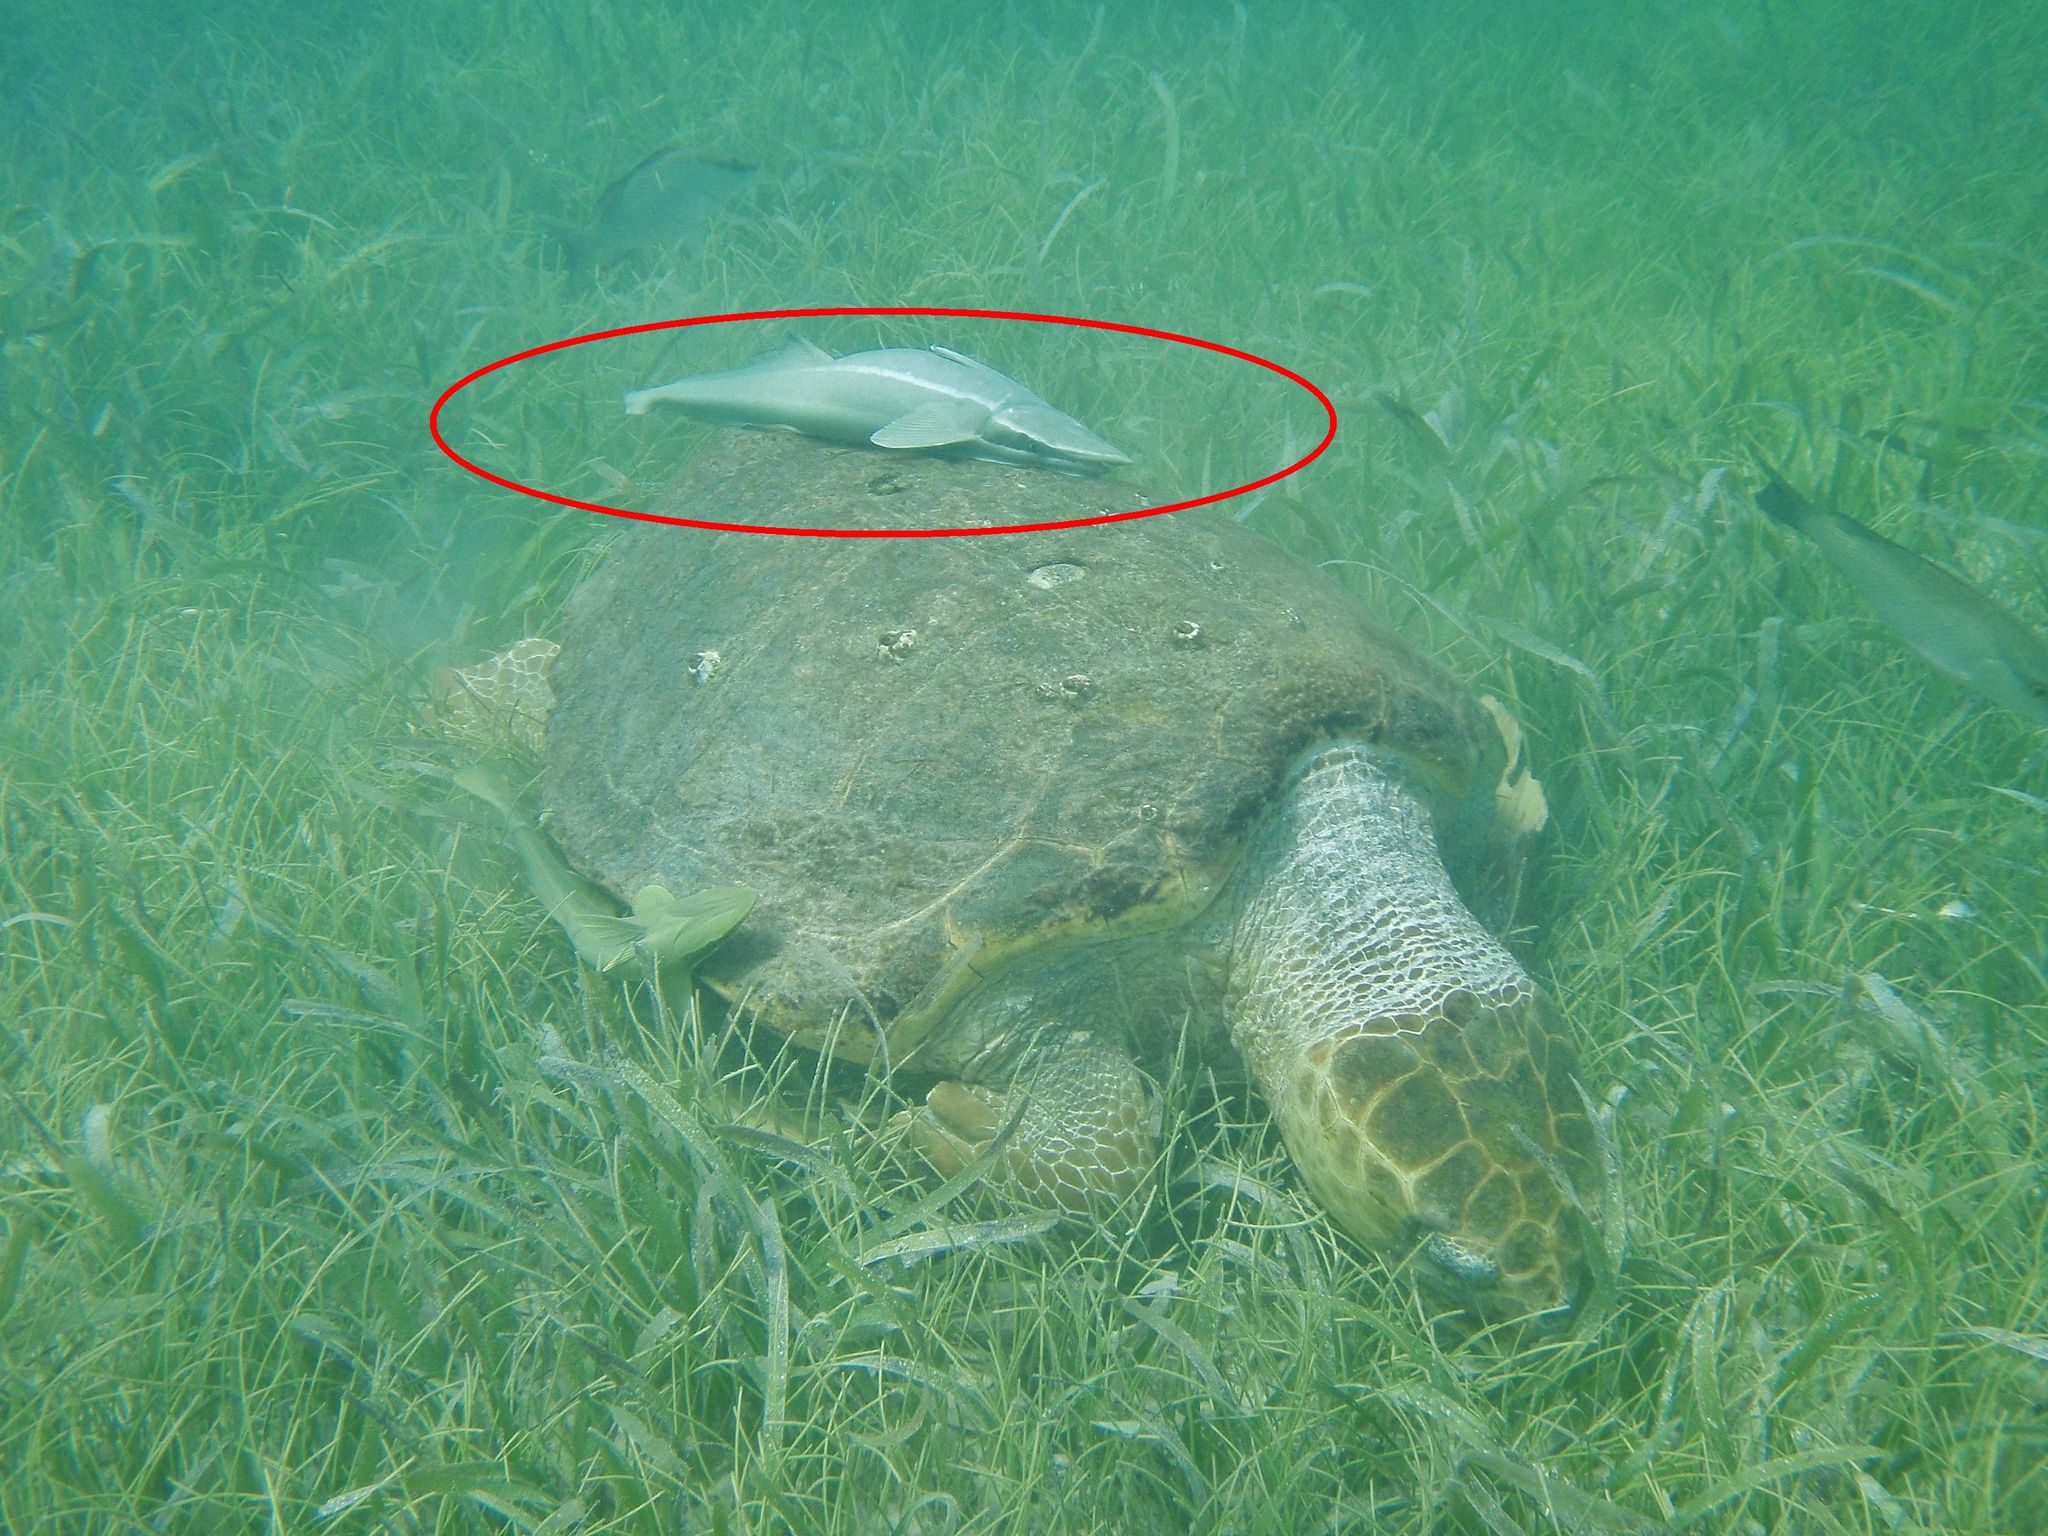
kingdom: Animalia
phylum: Chordata
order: Perciformes
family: Echeneidae
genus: Echeneis
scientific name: Echeneis naucrates
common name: Sharksucker
